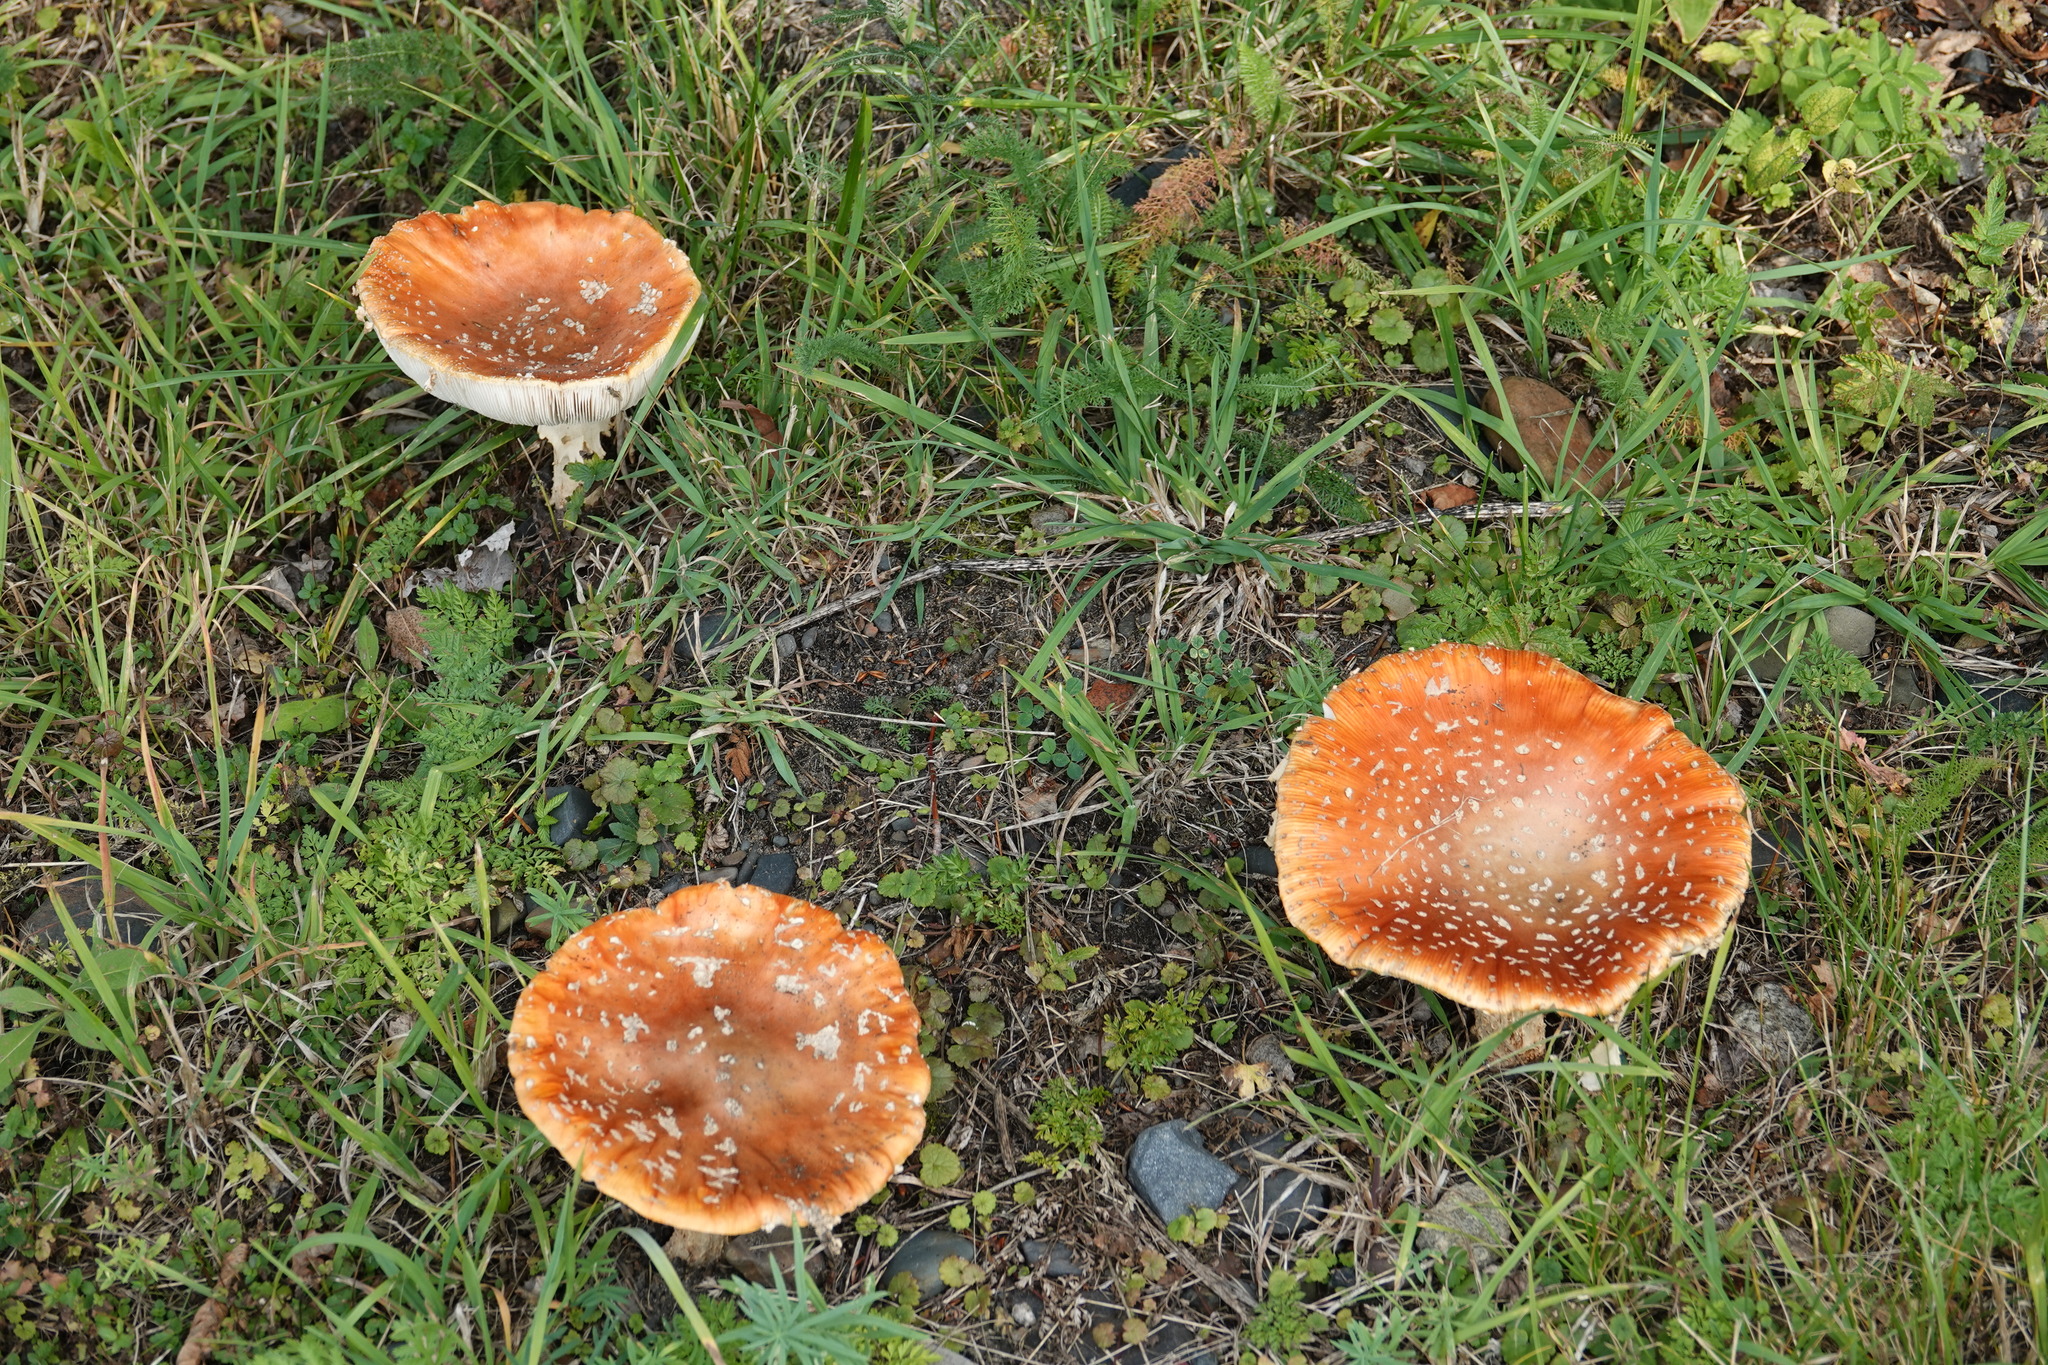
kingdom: Fungi
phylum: Basidiomycota
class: Agaricomycetes
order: Agaricales
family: Amanitaceae
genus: Amanita
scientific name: Amanita muscaria
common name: Fly agaric
